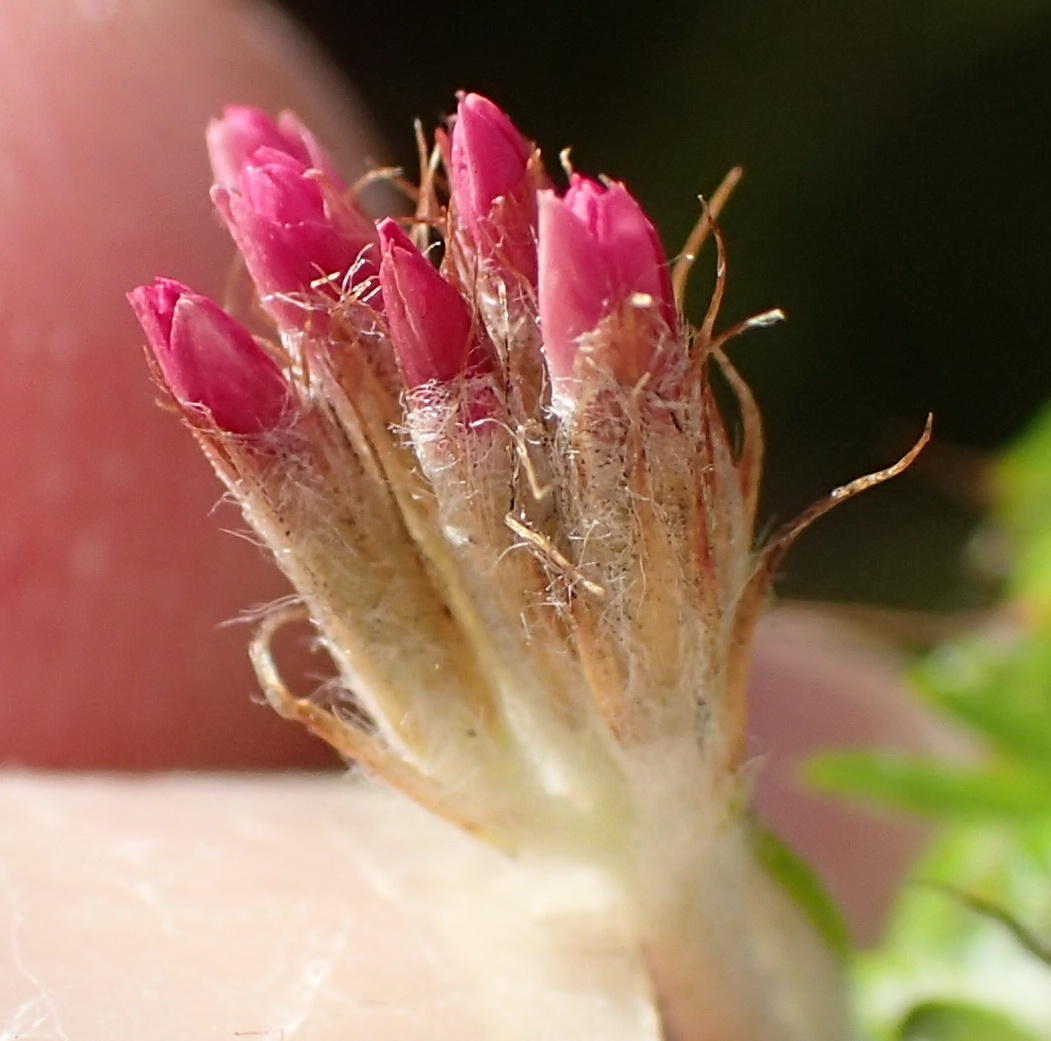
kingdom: Plantae
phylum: Tracheophyta
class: Magnoliopsida
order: Asterales
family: Asteraceae
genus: Metalasia
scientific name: Metalasia pungens
